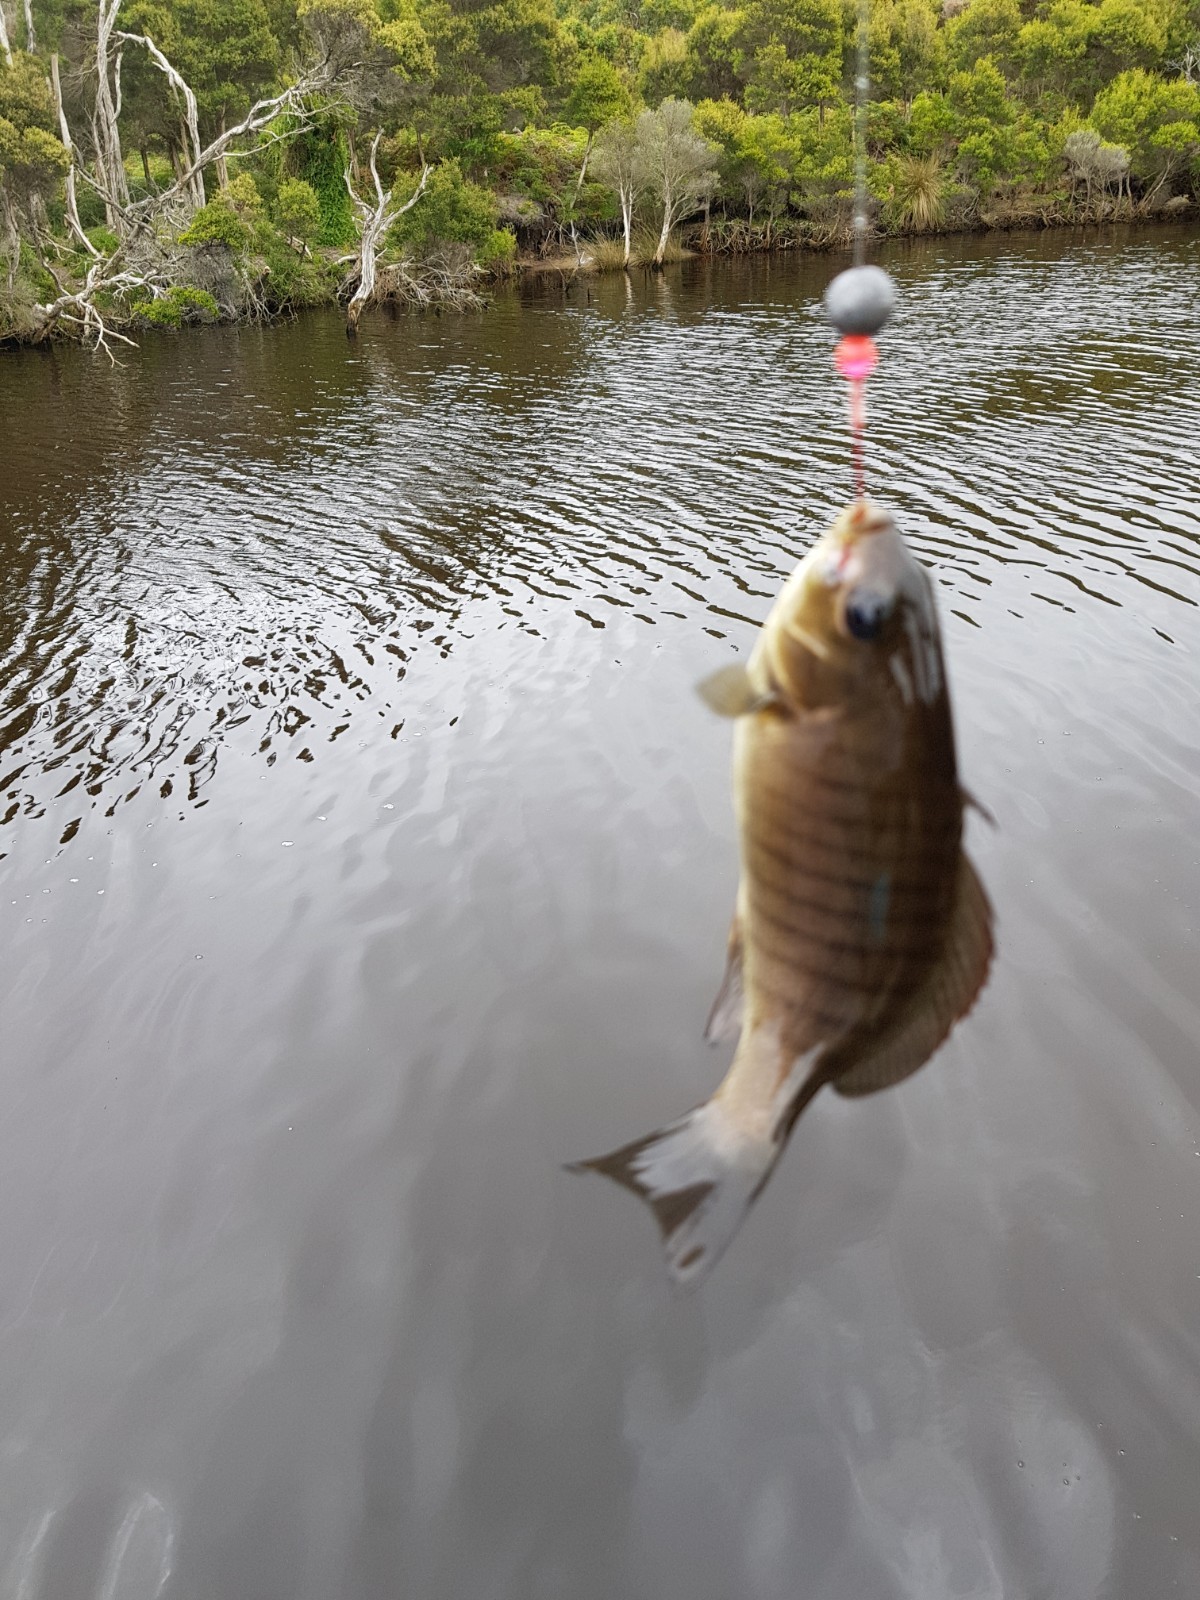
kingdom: Animalia
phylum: Chordata
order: Perciformes
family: Kyphosidae
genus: Girella
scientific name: Girella tricuspidata
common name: Parore
